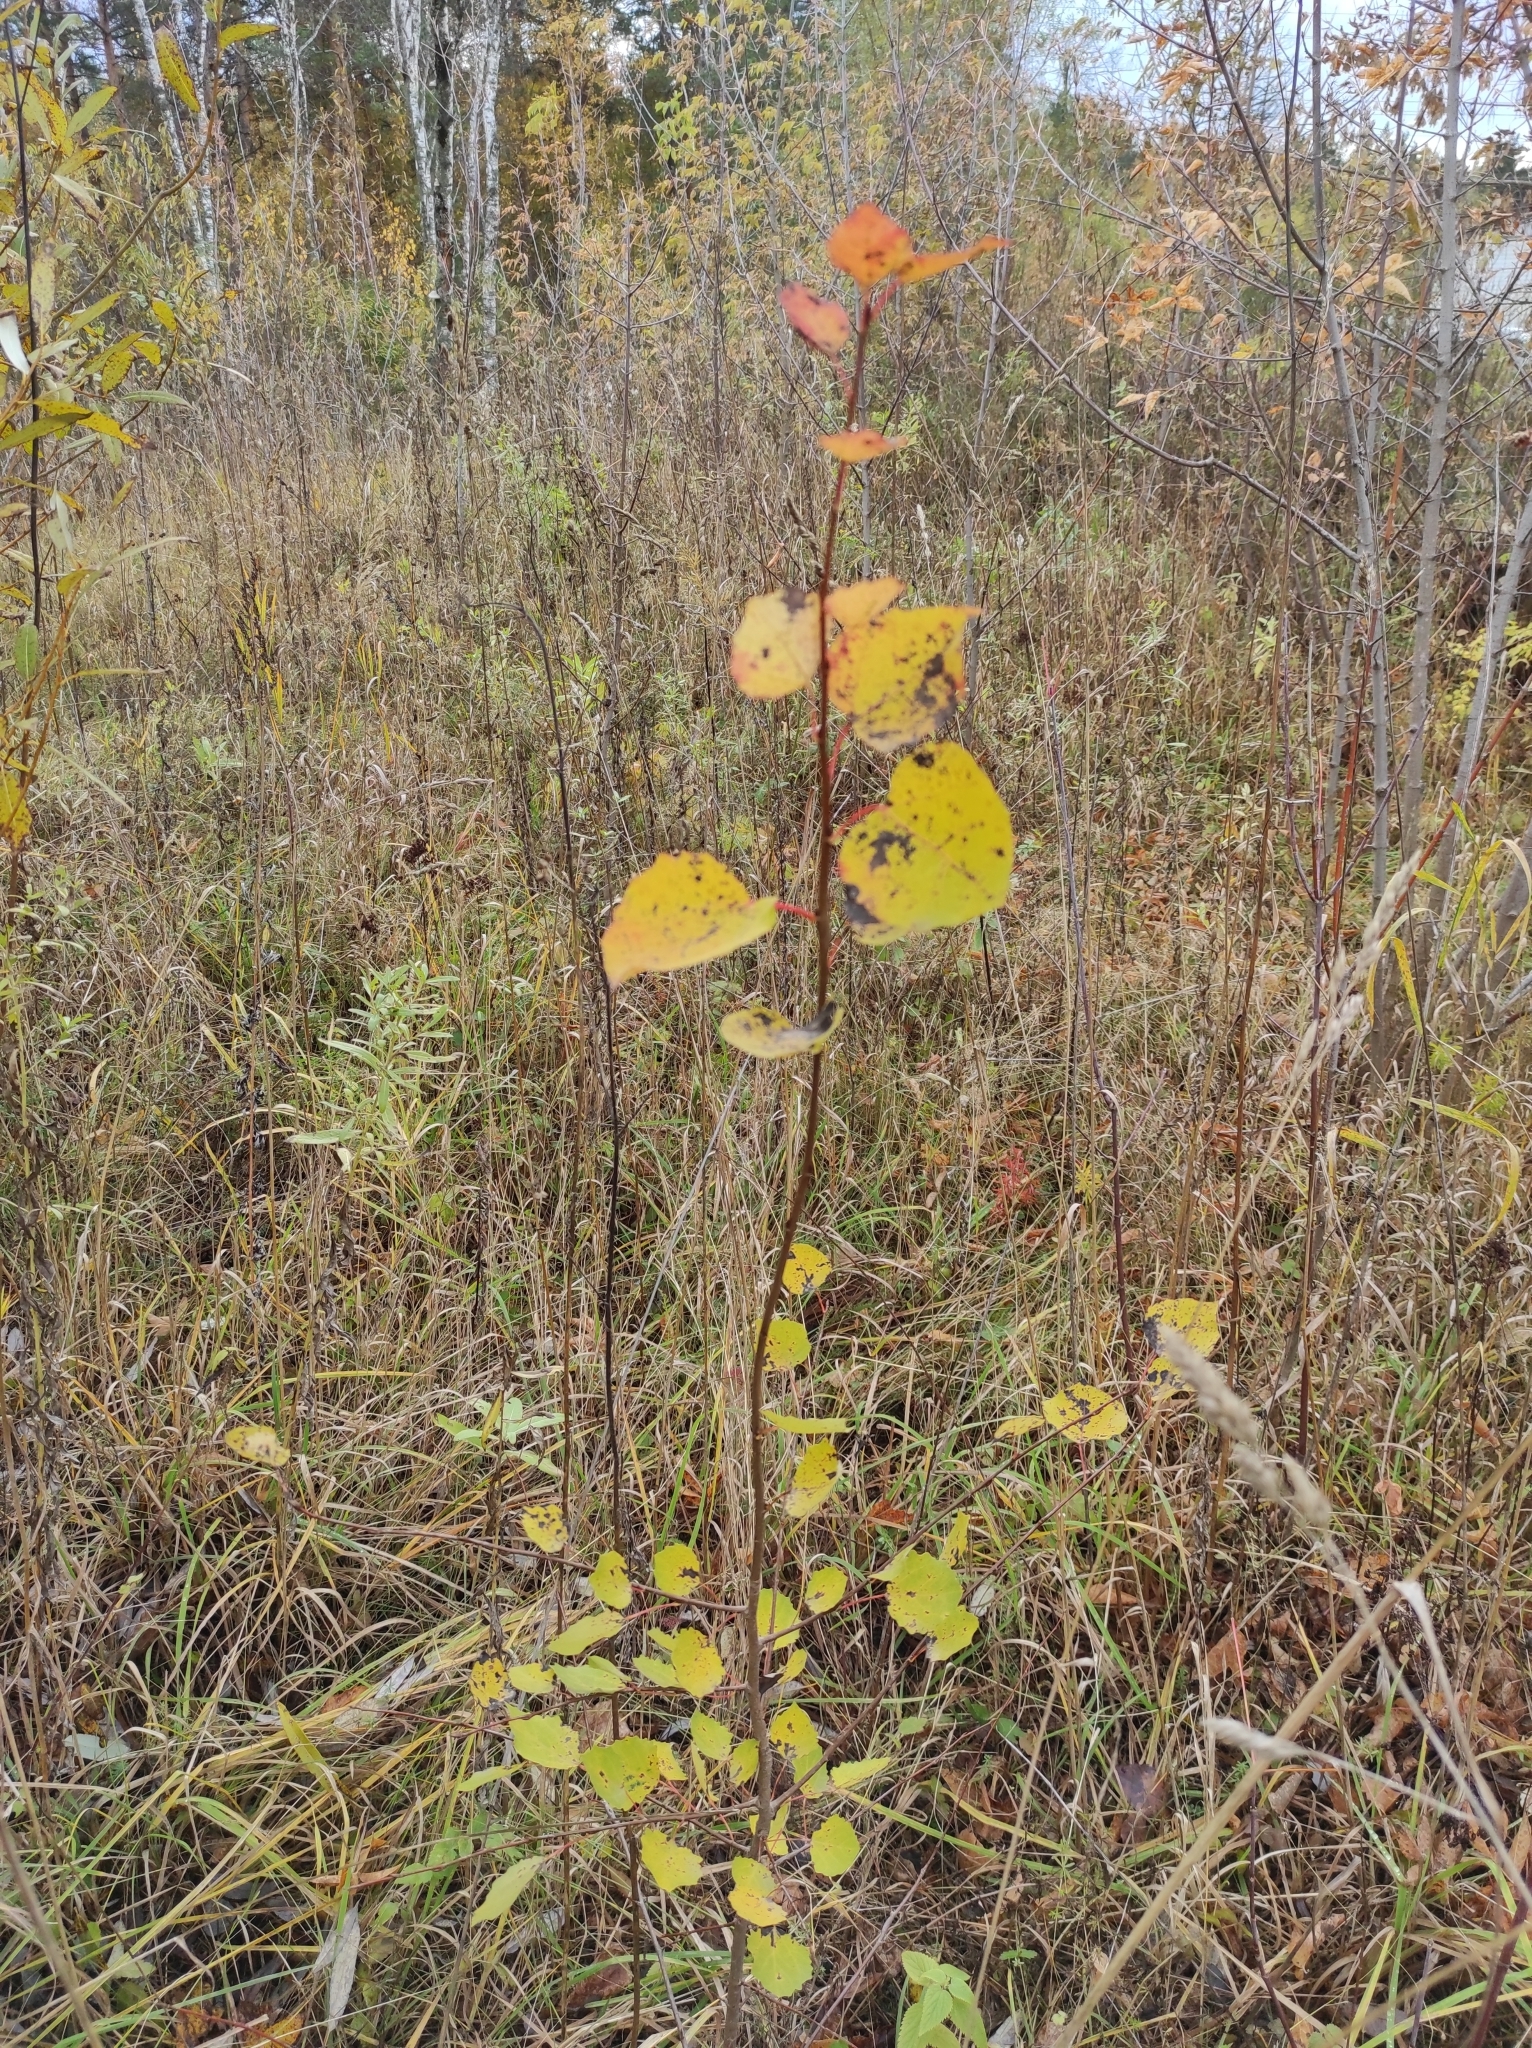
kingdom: Plantae
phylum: Tracheophyta
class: Magnoliopsida
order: Malpighiales
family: Salicaceae
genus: Populus
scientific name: Populus tremula
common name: European aspen
